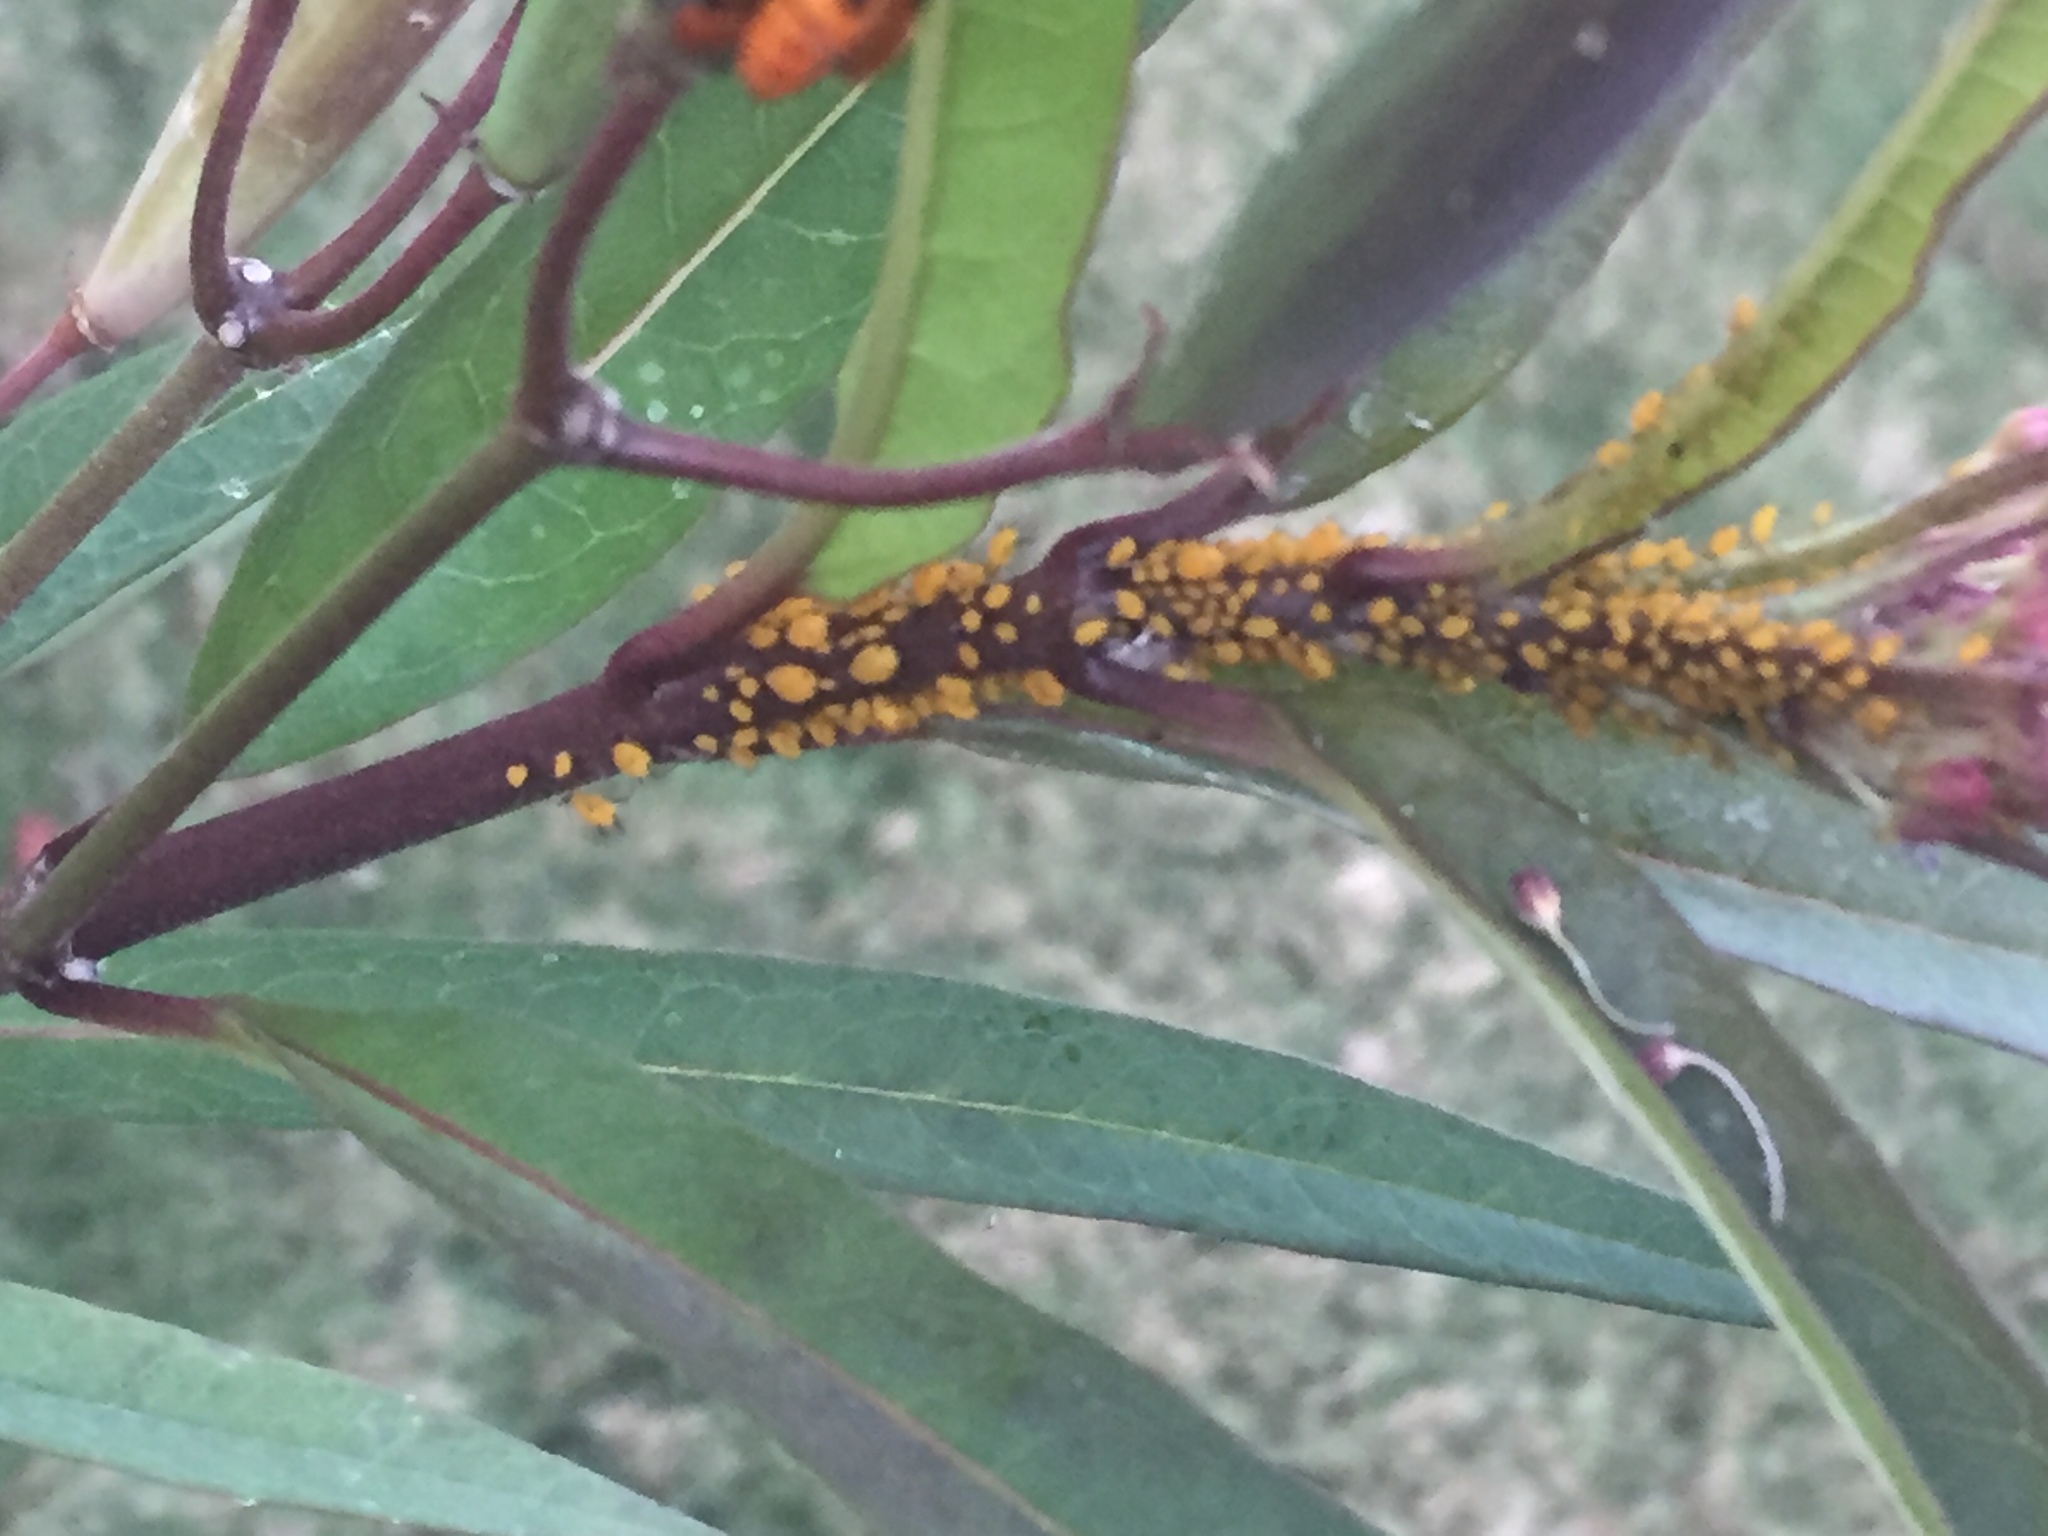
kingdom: Animalia
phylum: Arthropoda
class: Insecta
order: Hemiptera
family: Aphididae
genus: Aphis
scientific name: Aphis nerii
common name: Oleander aphid
